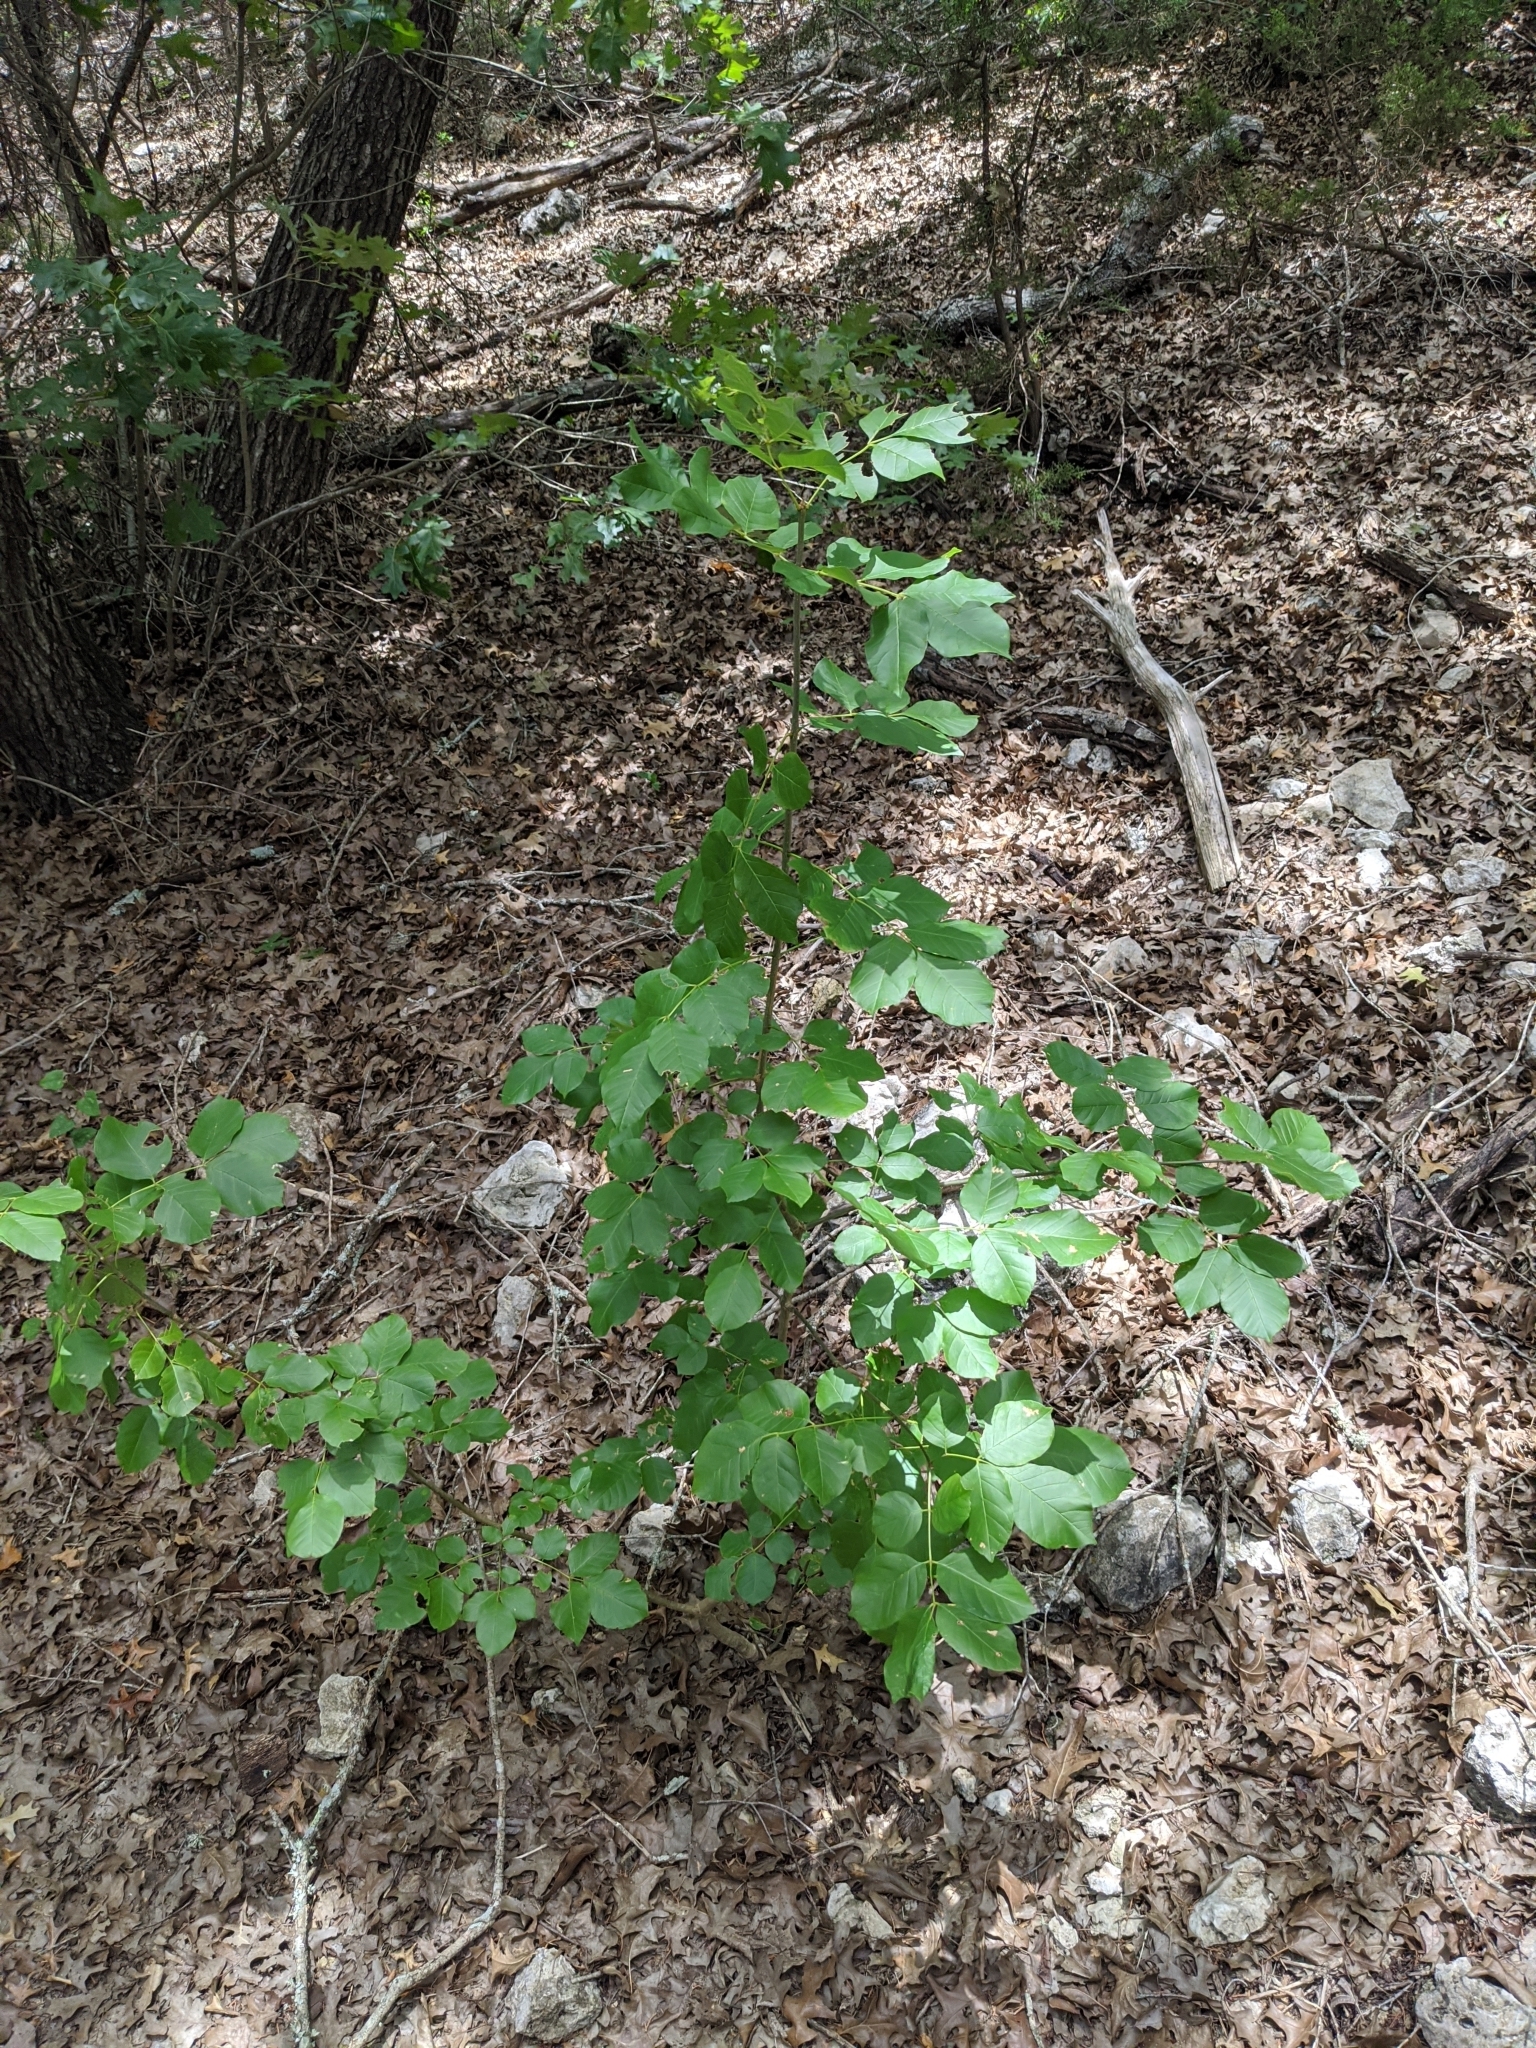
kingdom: Plantae
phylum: Tracheophyta
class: Magnoliopsida
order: Lamiales
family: Oleaceae
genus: Fraxinus
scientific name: Fraxinus albicans
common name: Texas ash
